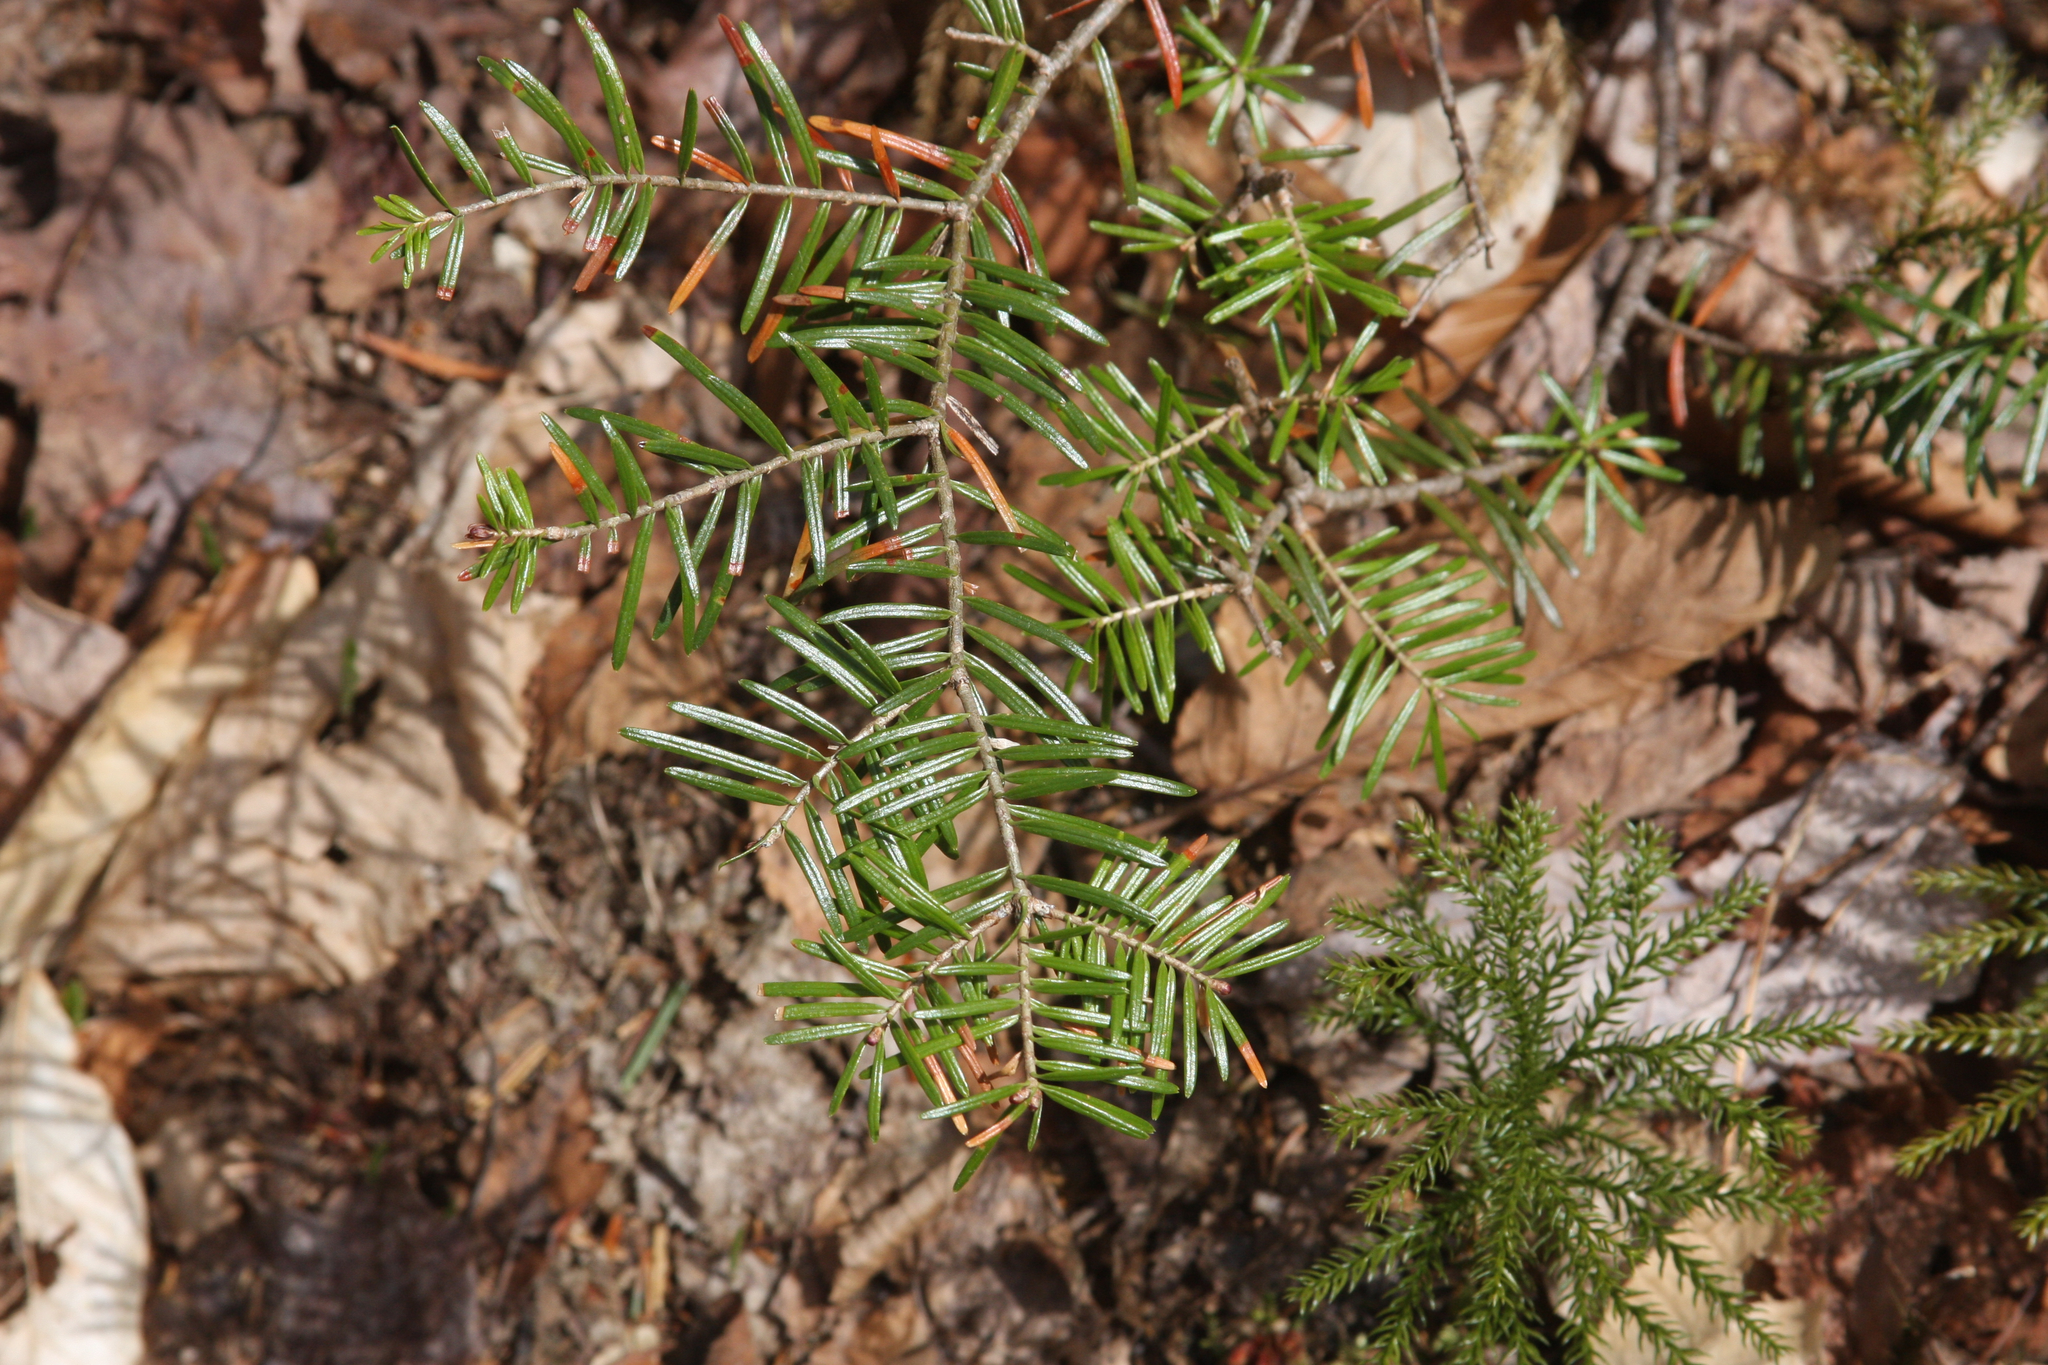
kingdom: Plantae
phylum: Tracheophyta
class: Pinopsida
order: Pinales
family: Pinaceae
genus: Abies
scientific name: Abies balsamea
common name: Balsam fir
